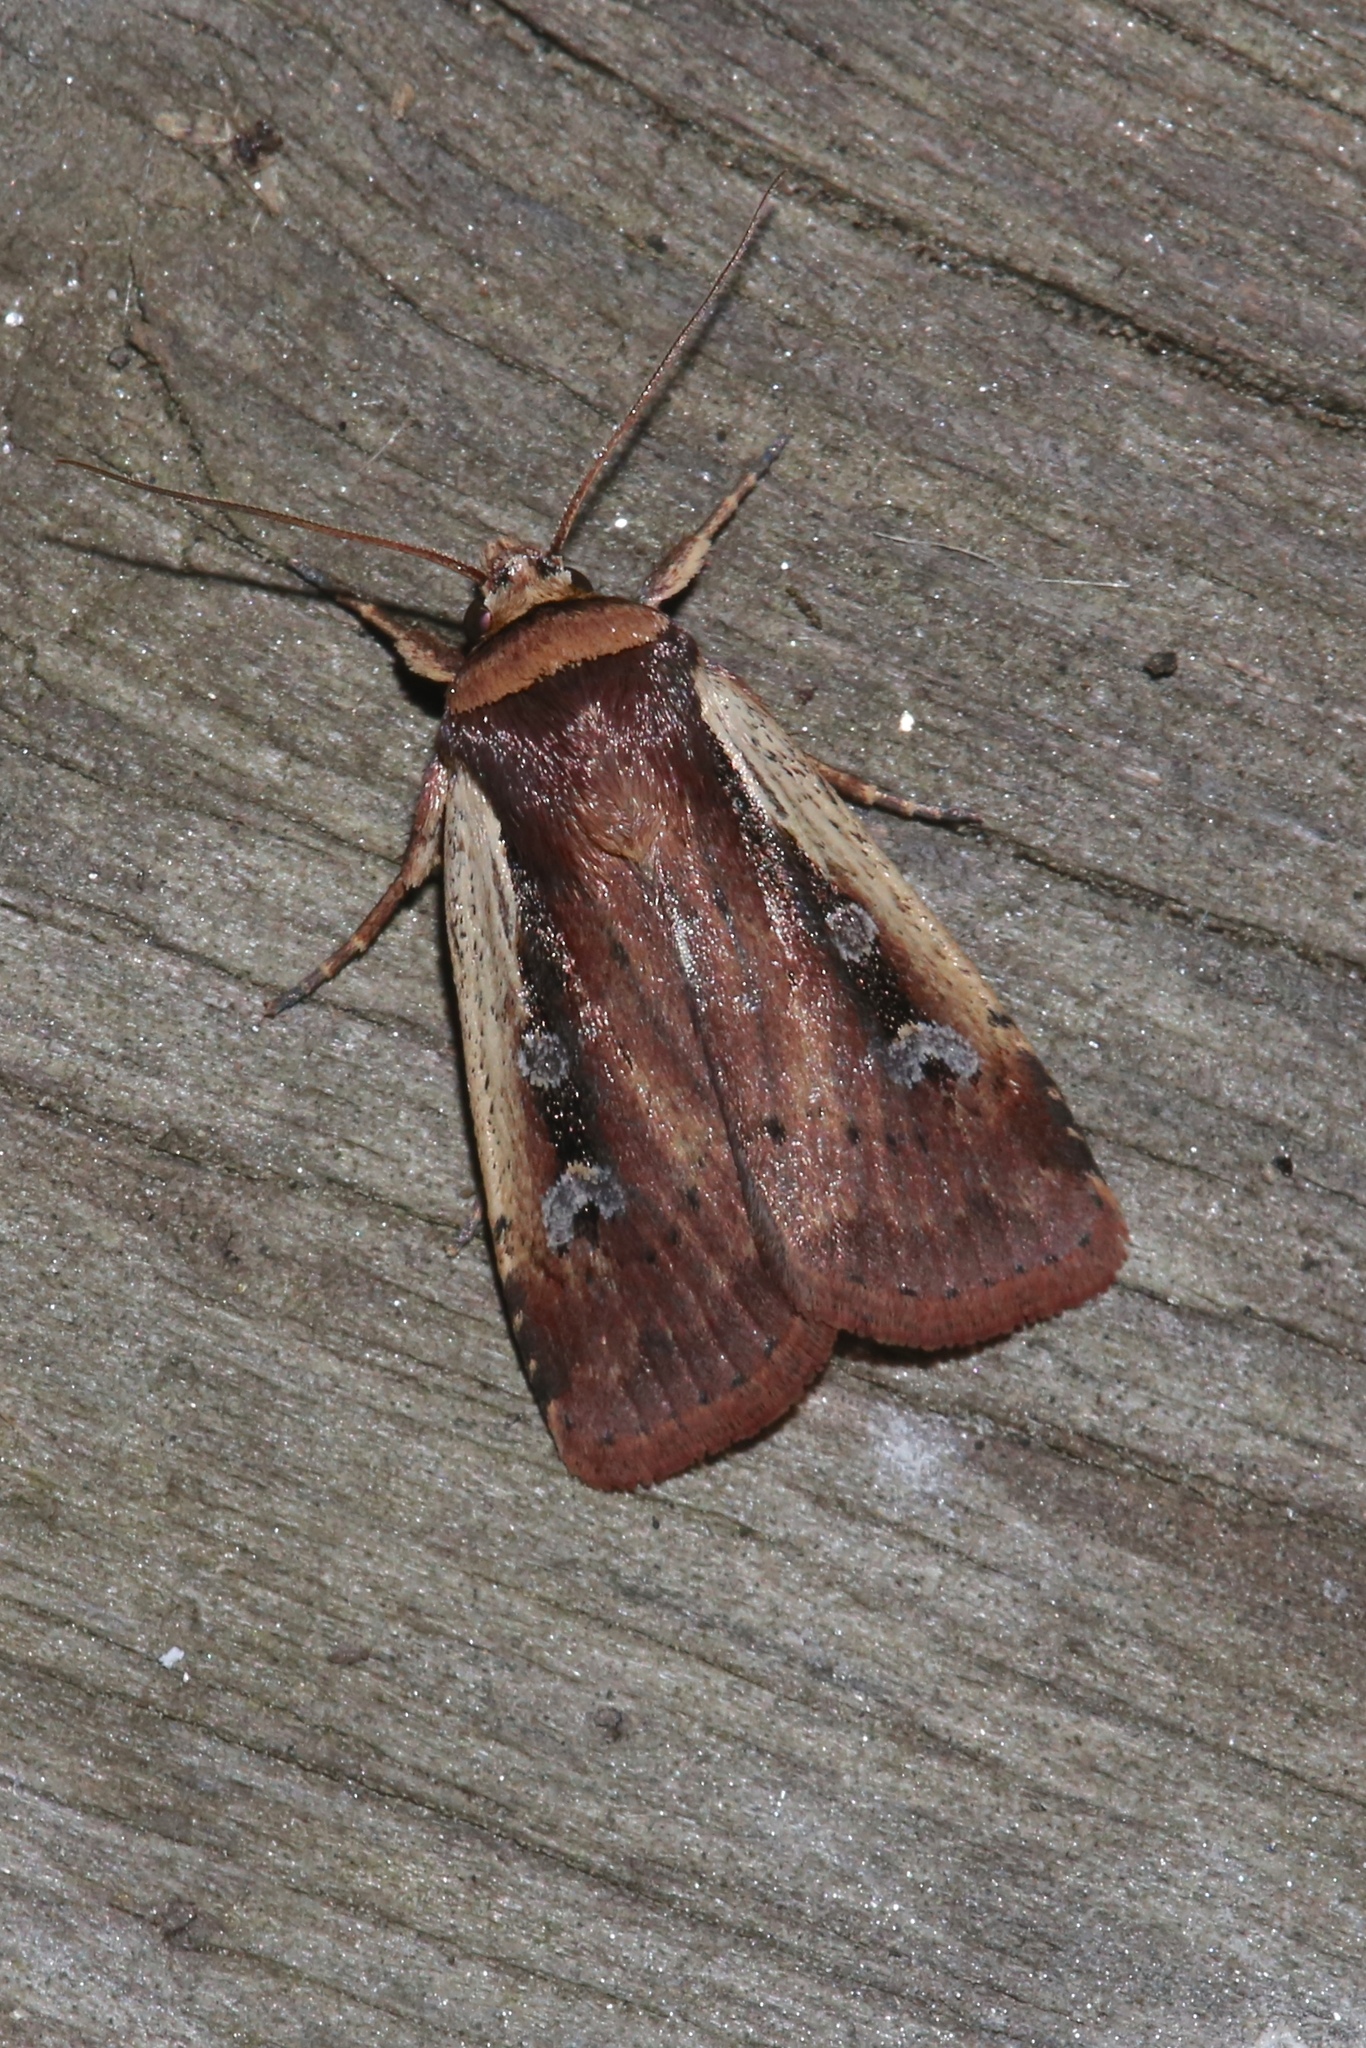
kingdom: Animalia
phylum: Arthropoda
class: Insecta
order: Lepidoptera
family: Noctuidae
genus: Ochropleura
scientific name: Ochropleura implecta
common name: Flame-shouldered dart
